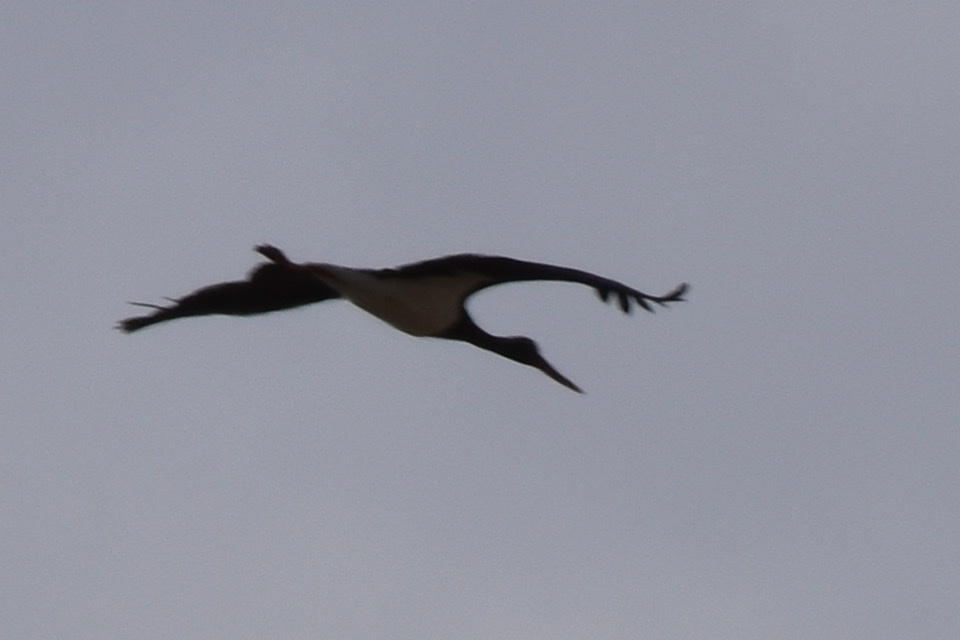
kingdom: Animalia
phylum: Chordata
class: Aves
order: Ciconiiformes
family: Ciconiidae
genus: Ciconia
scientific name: Ciconia nigra
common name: Black stork
